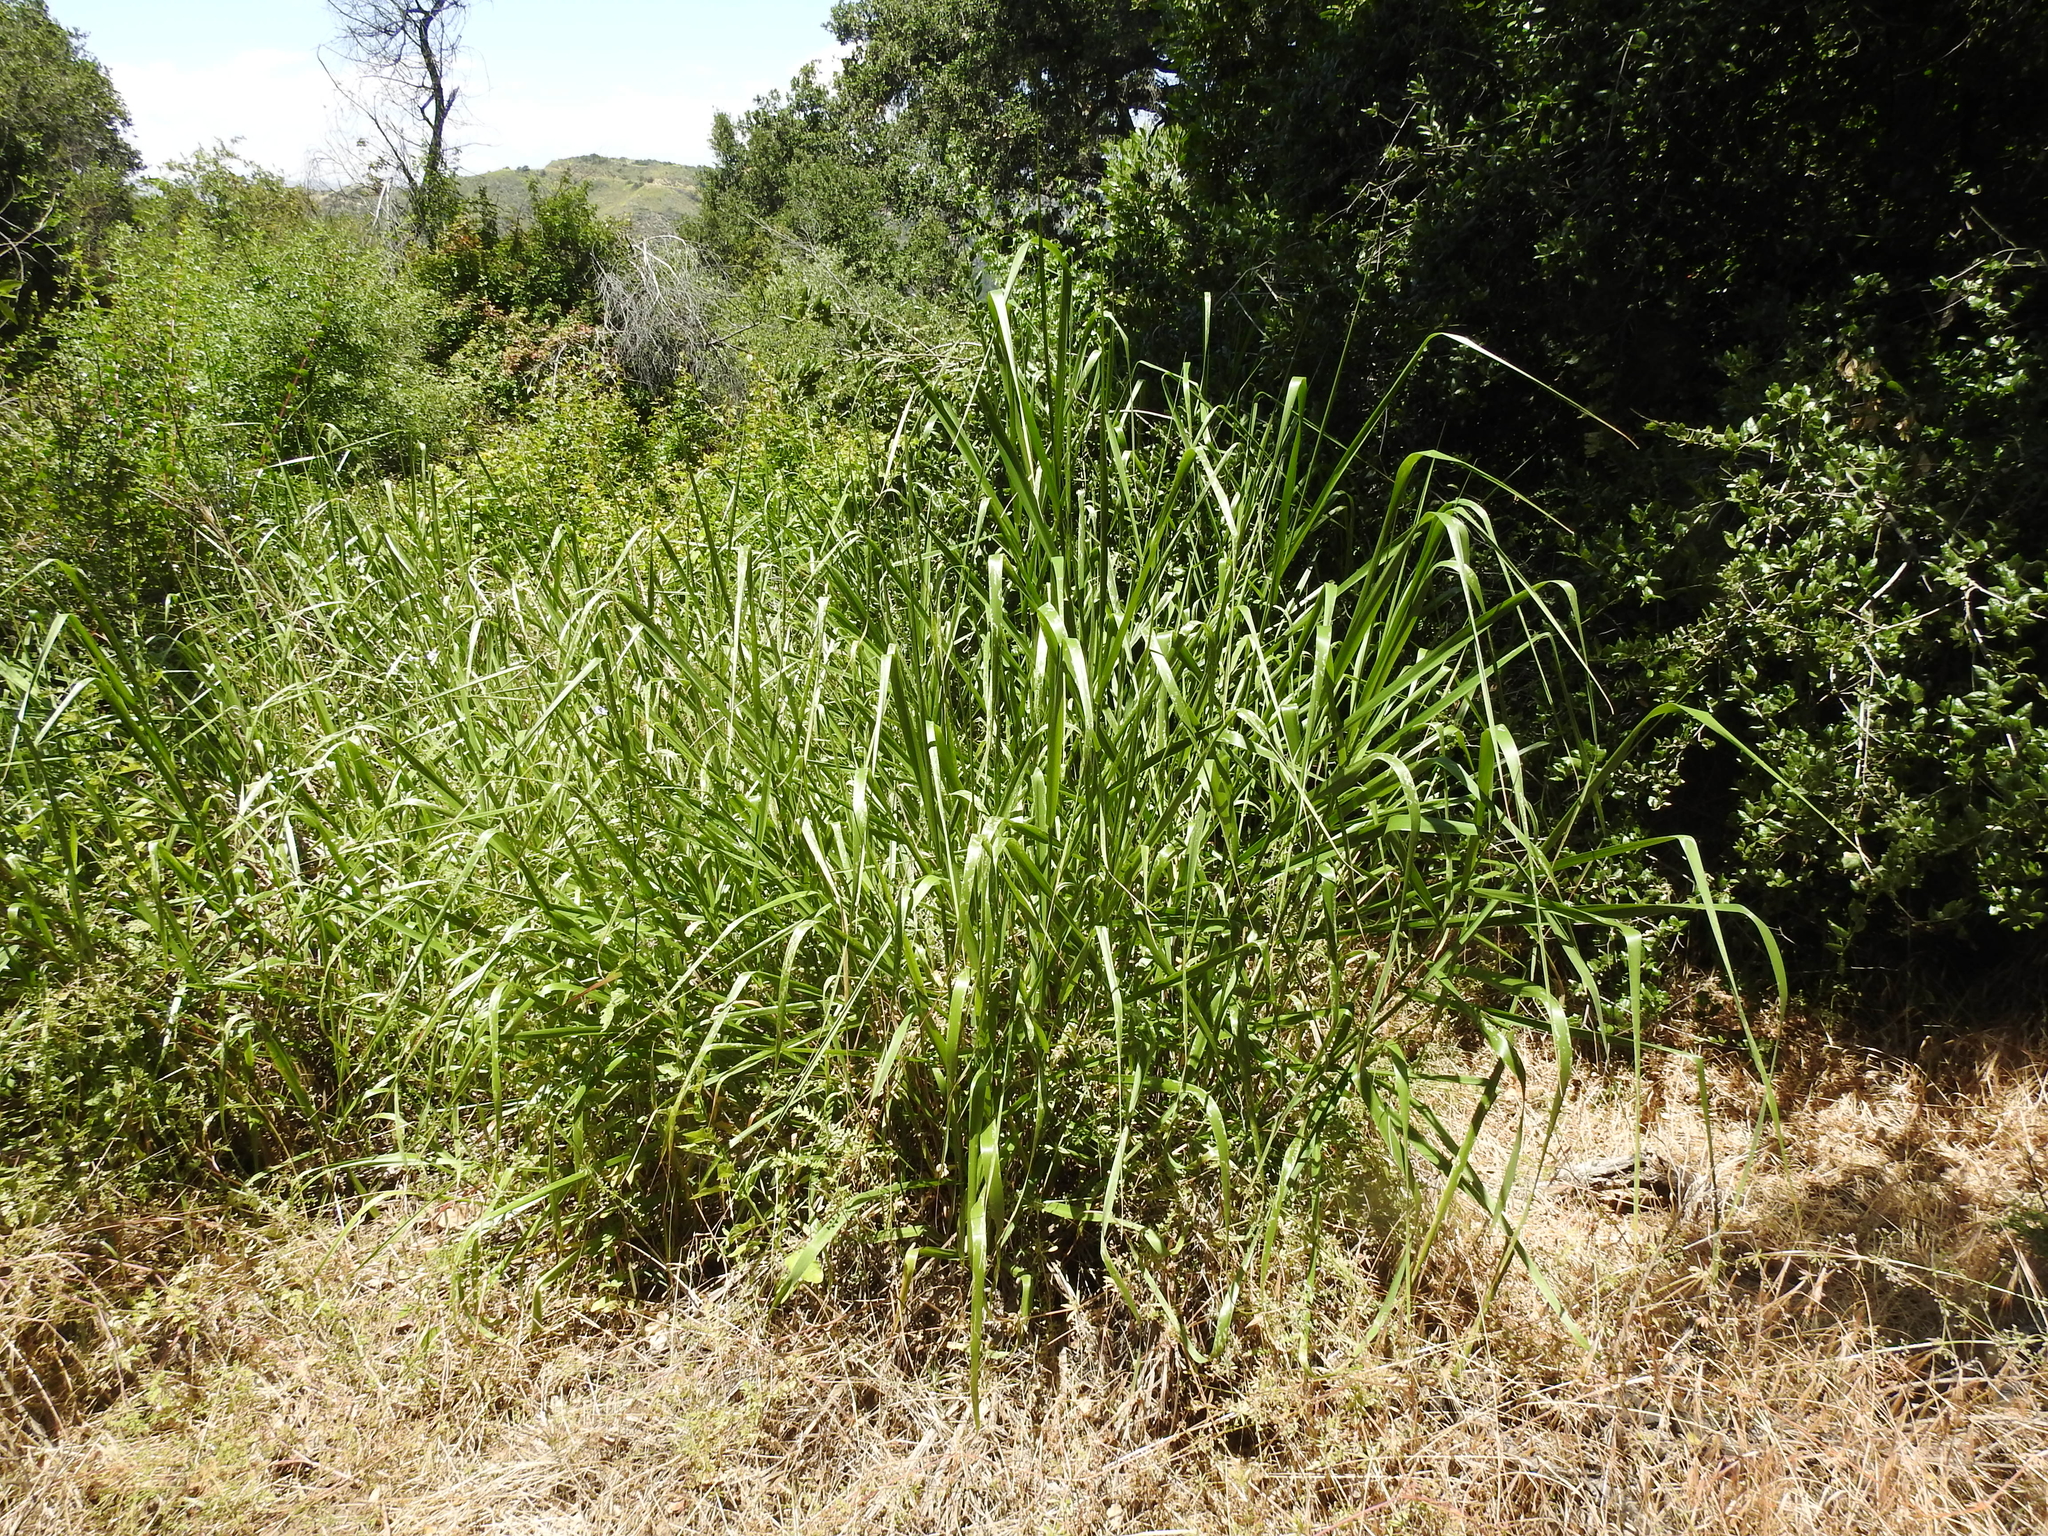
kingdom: Plantae
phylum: Tracheophyta
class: Liliopsida
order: Poales
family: Poaceae
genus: Leymus
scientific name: Leymus condensatus
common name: Giant wild rye
